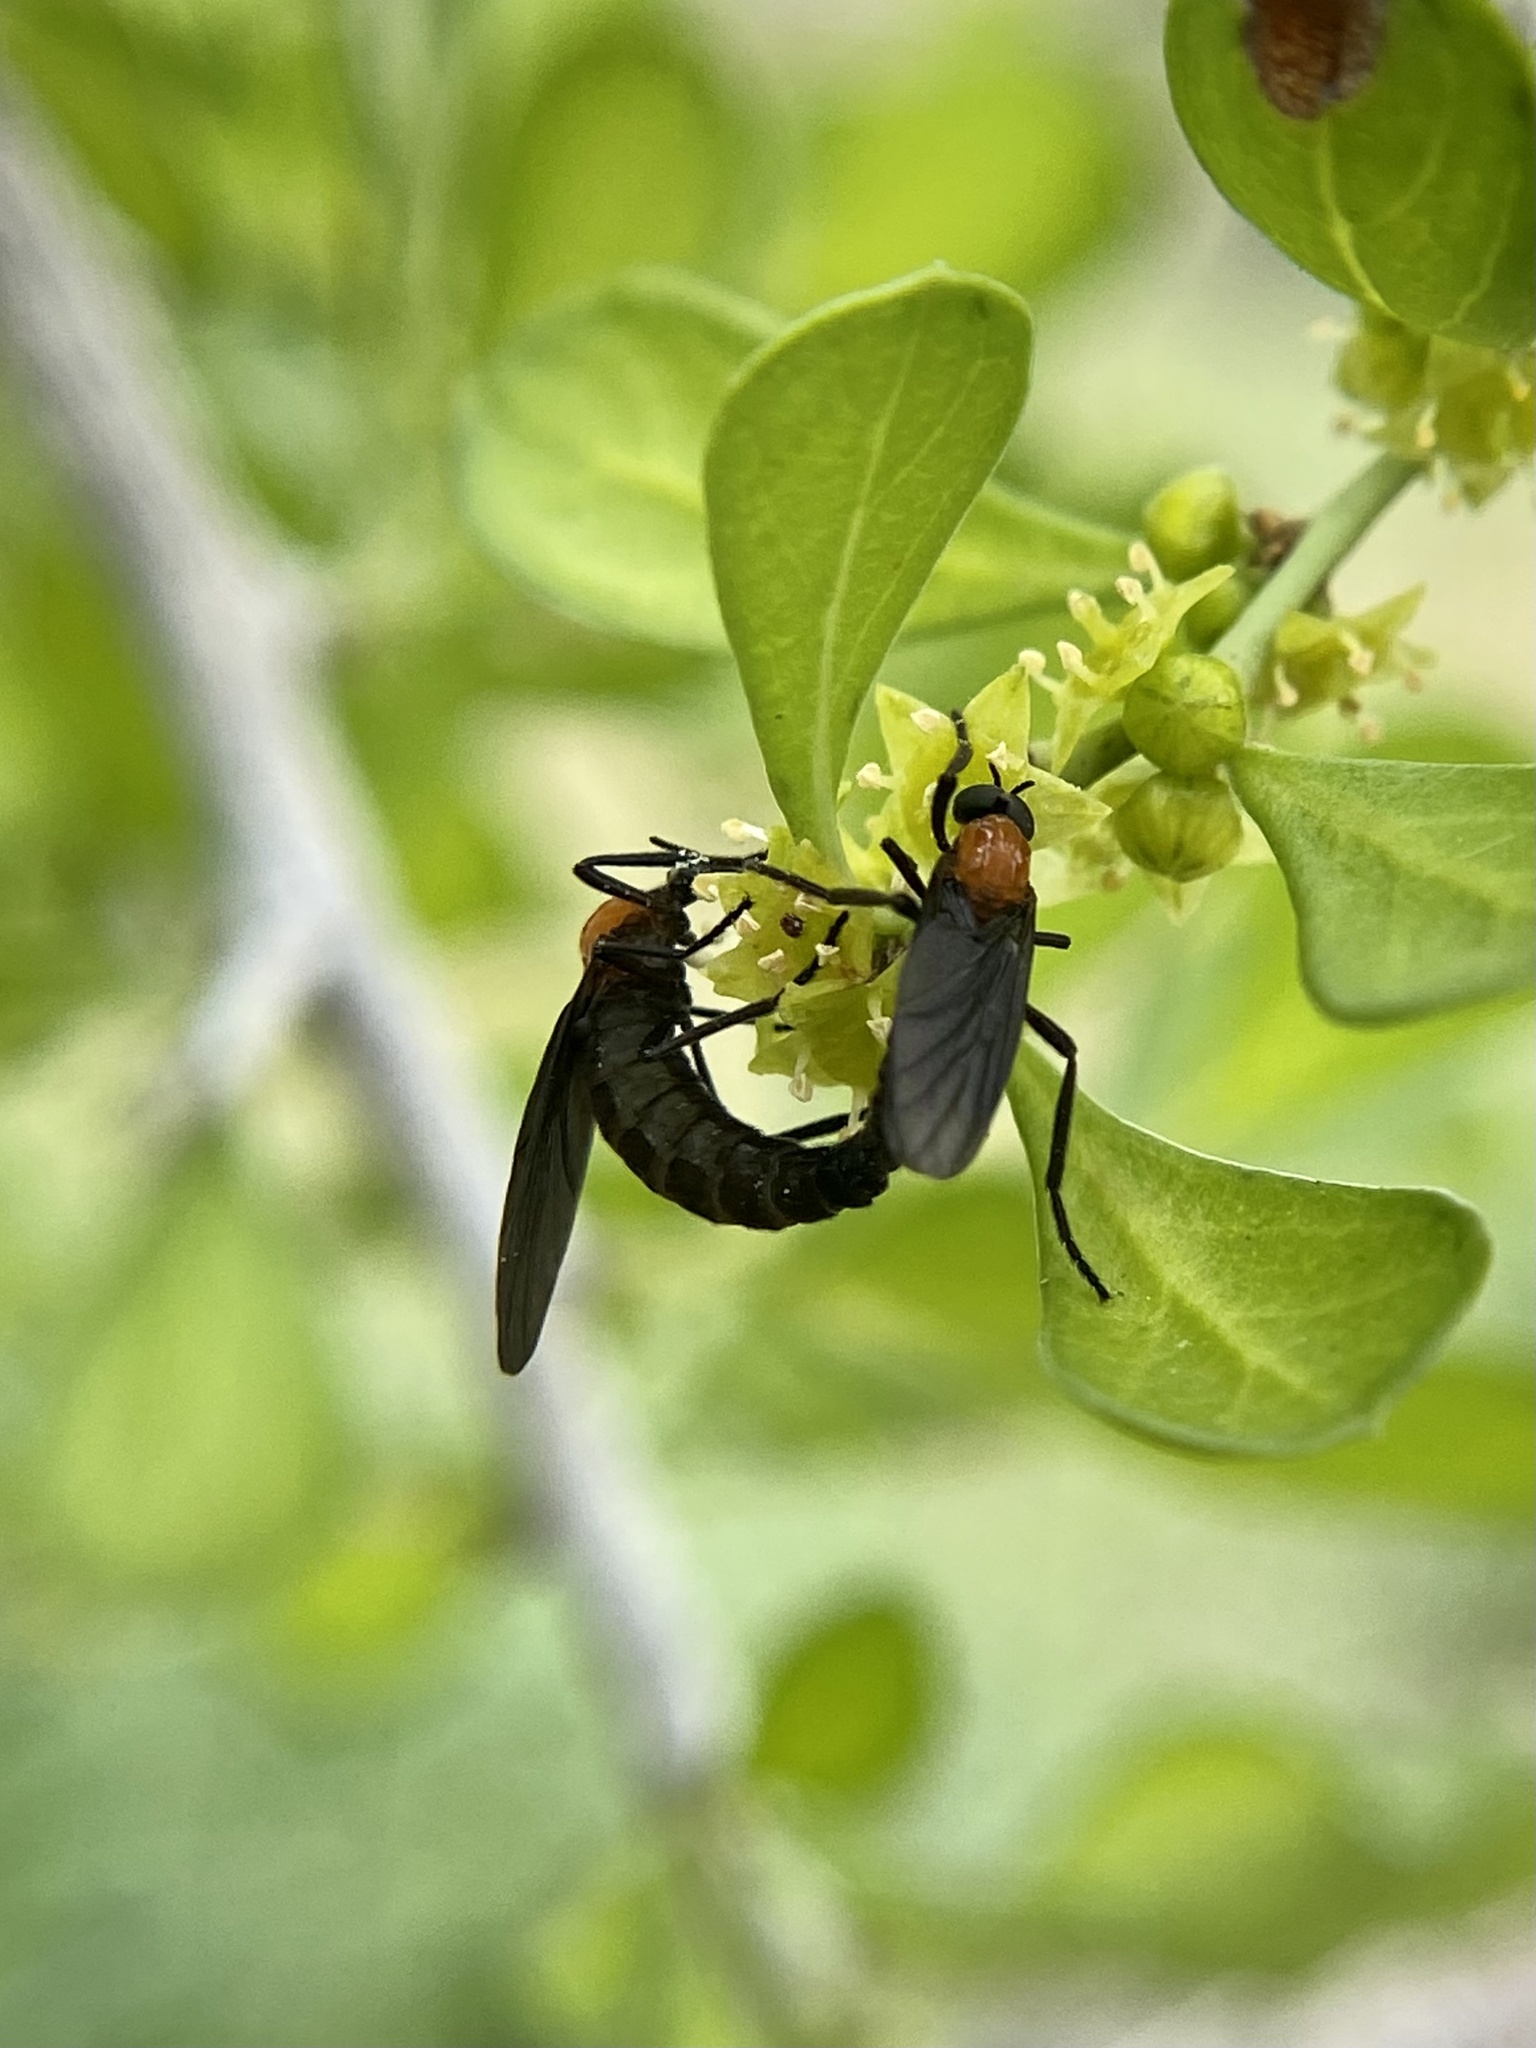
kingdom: Animalia
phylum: Arthropoda
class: Insecta
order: Diptera
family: Bibionidae
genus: Plecia
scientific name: Plecia nearctica
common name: March fly
